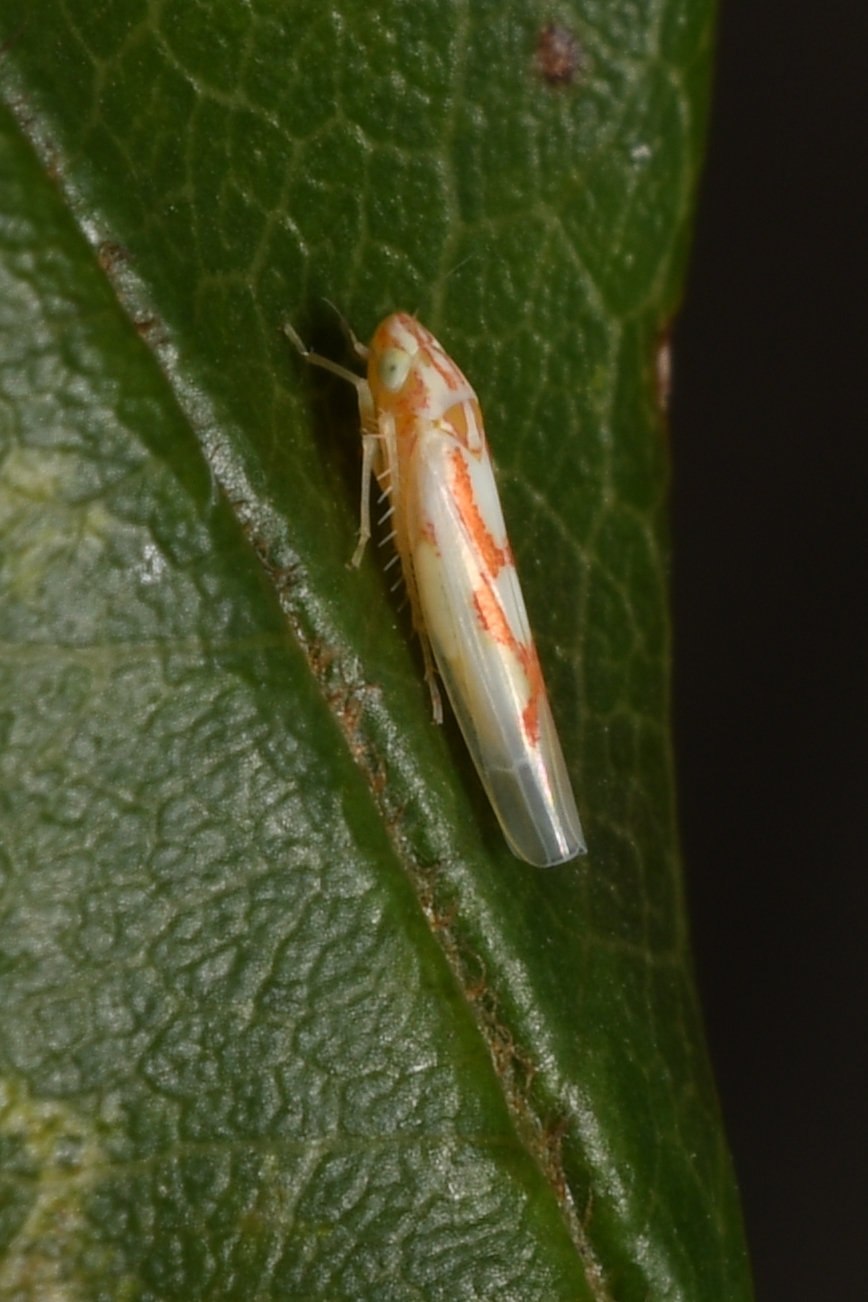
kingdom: Animalia
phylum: Arthropoda
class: Insecta
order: Hemiptera
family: Cicadellidae
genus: Zygina
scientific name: Zygina schneideri
